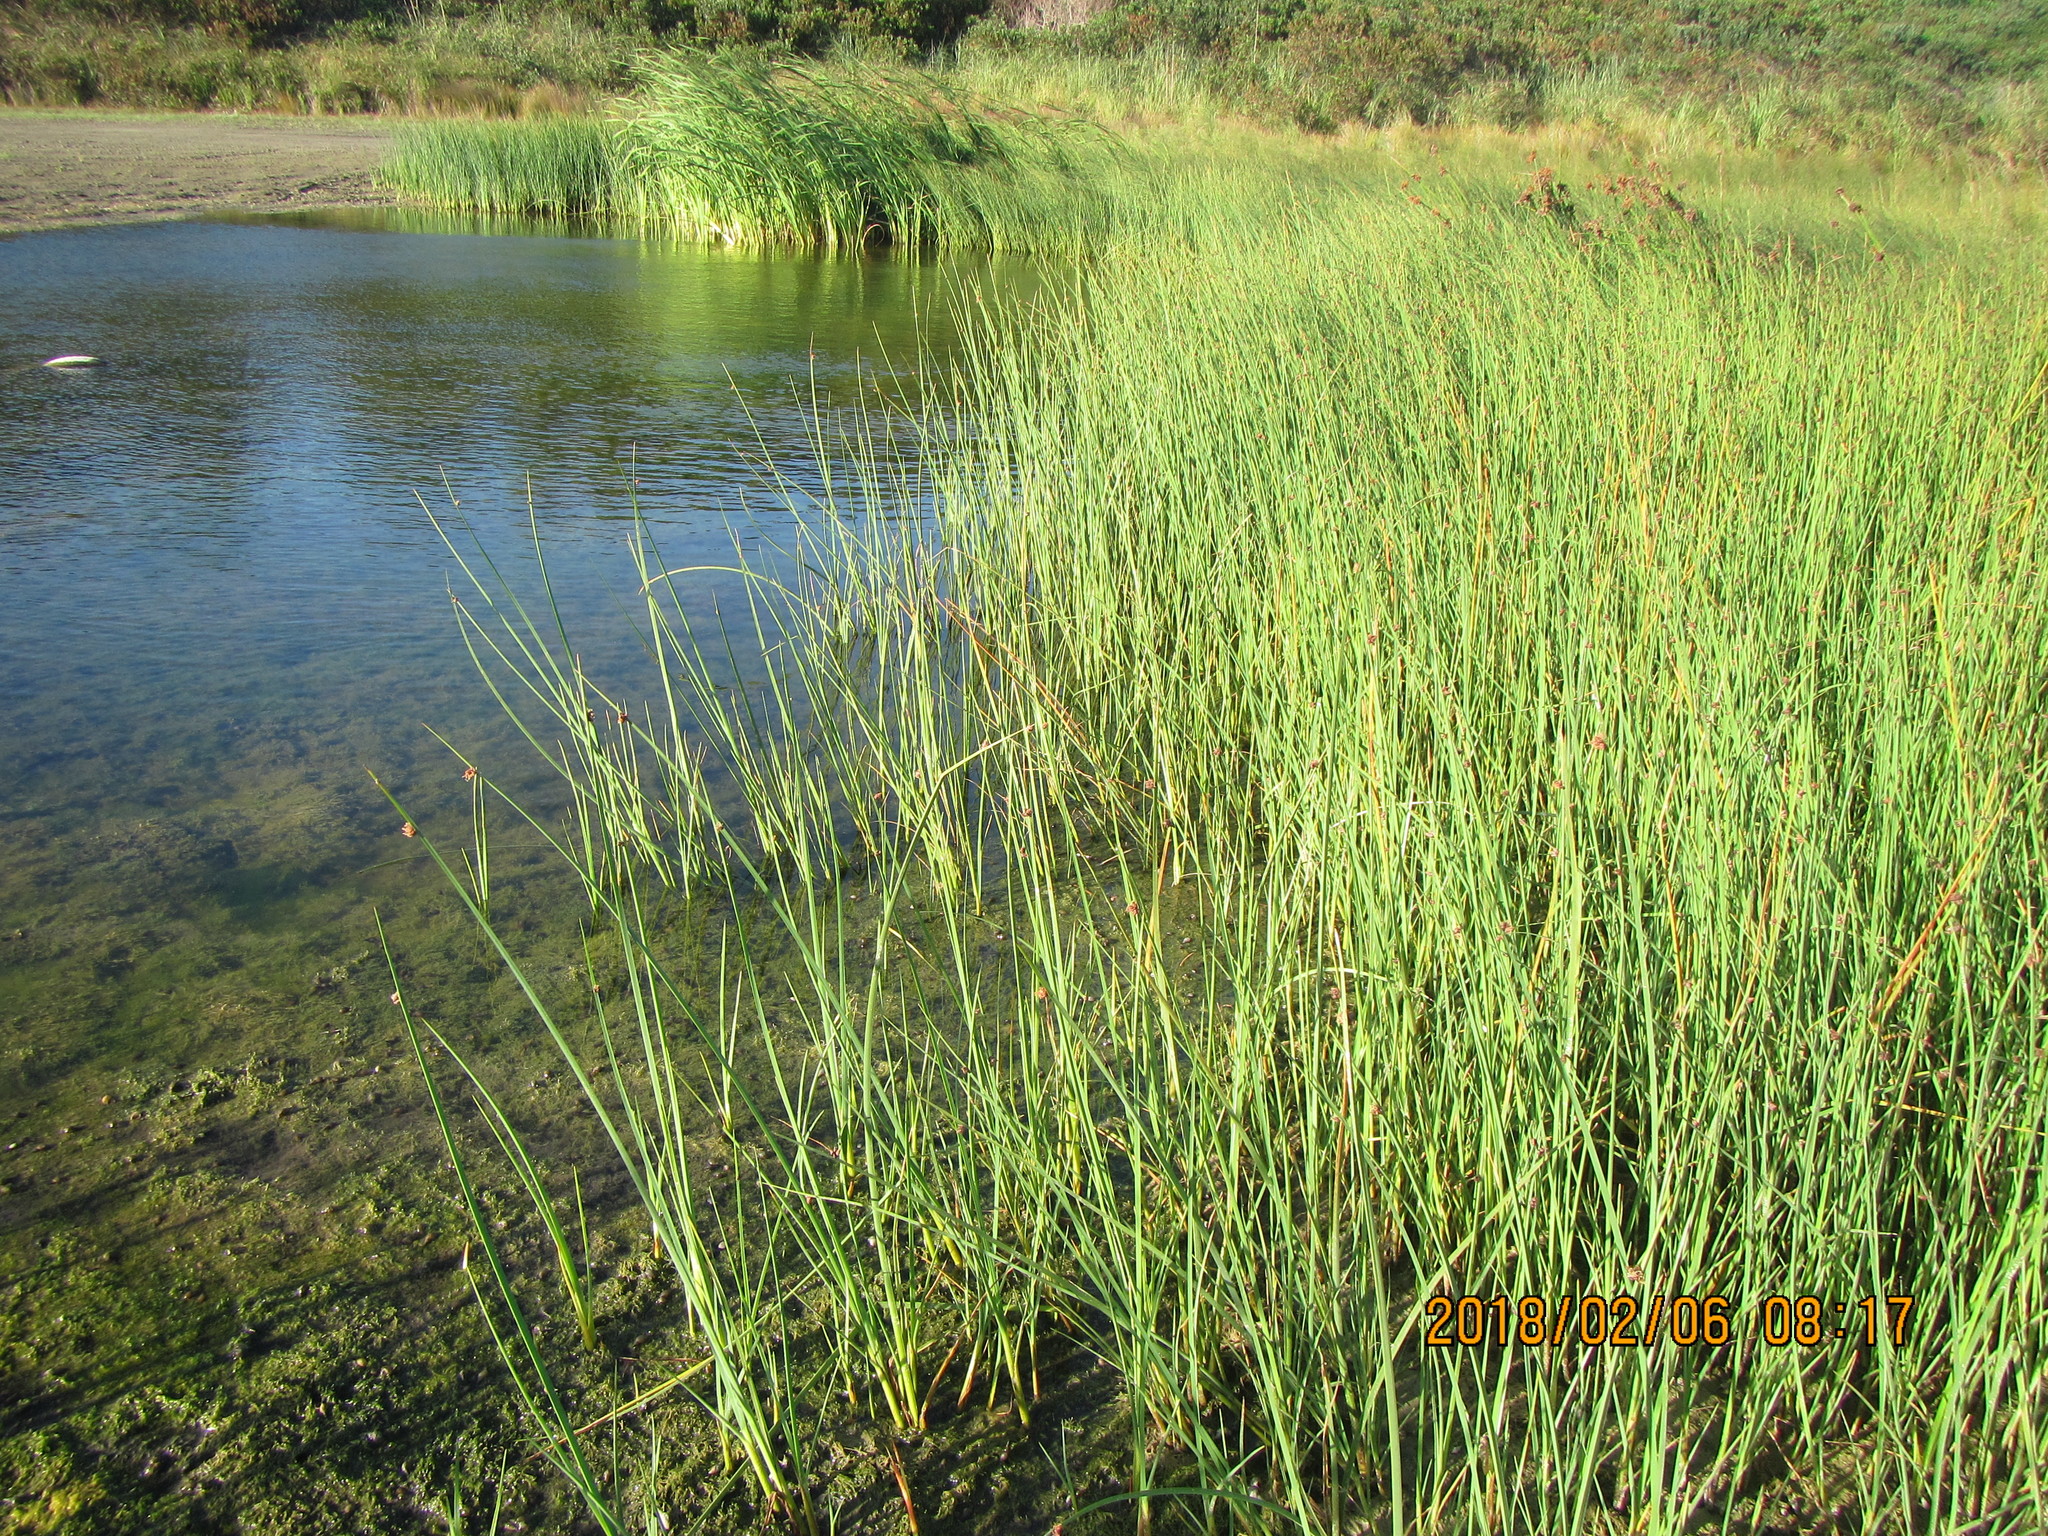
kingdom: Plantae
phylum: Tracheophyta
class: Liliopsida
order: Poales
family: Cyperaceae
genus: Schoenoplectus
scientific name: Schoenoplectus pungens
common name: Sharp club-rush
